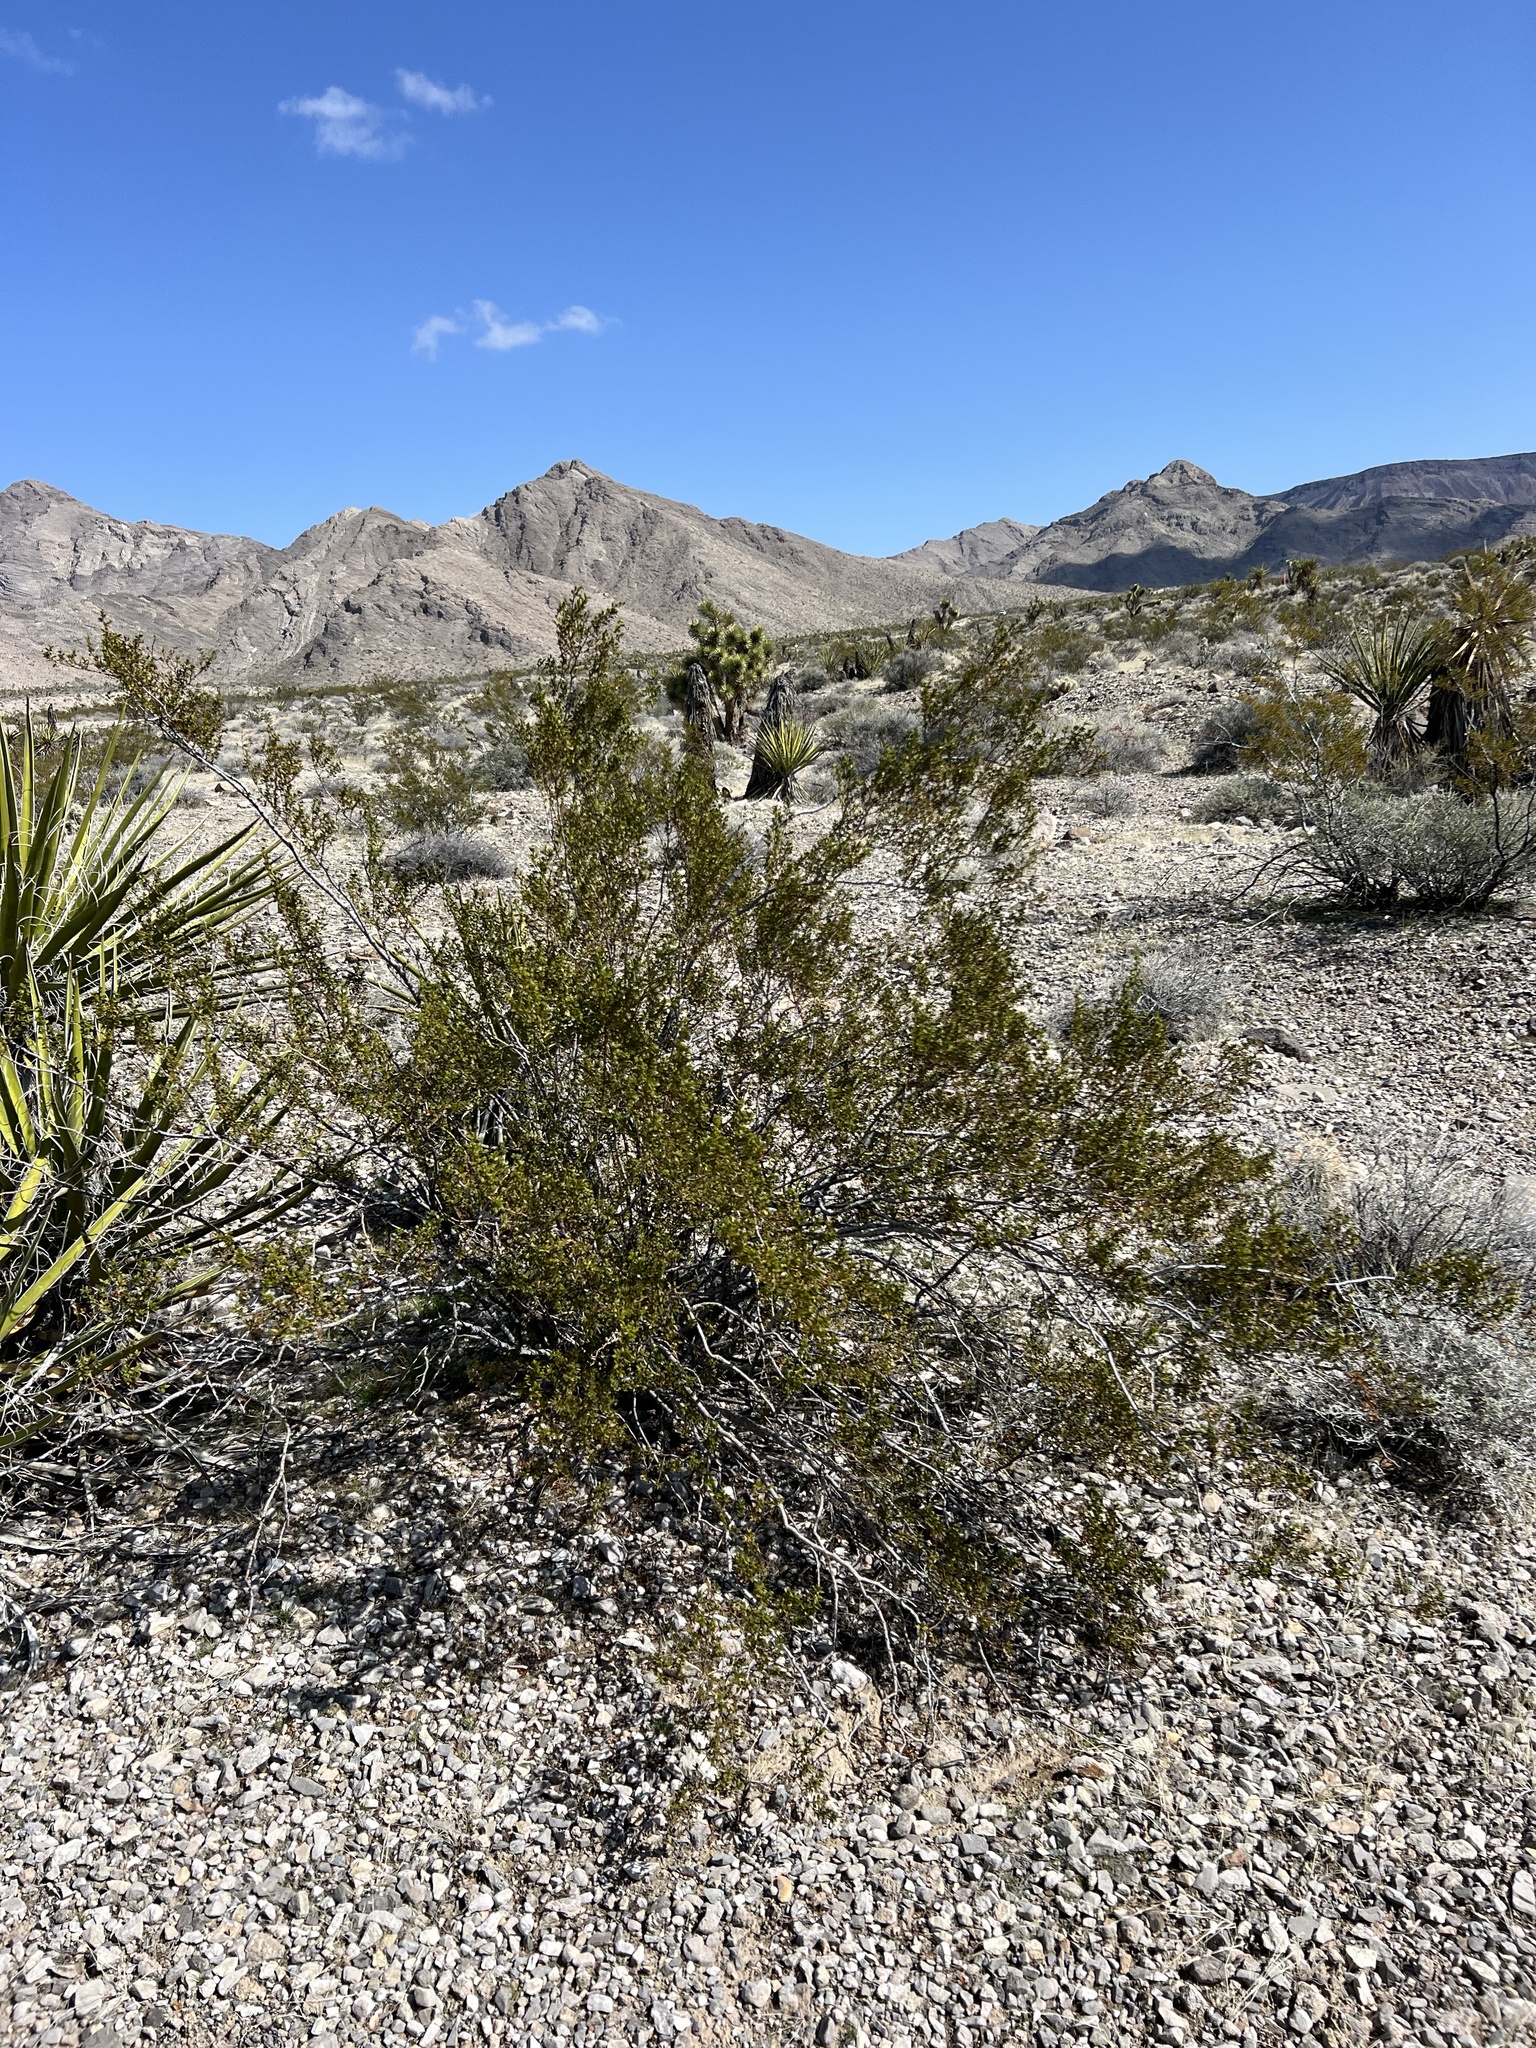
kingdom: Plantae
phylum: Tracheophyta
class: Magnoliopsida
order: Zygophyllales
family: Zygophyllaceae
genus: Larrea
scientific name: Larrea tridentata
